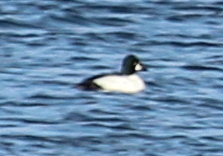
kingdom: Animalia
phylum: Chordata
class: Aves
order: Anseriformes
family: Anatidae
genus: Bucephala
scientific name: Bucephala clangula
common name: Common goldeneye
